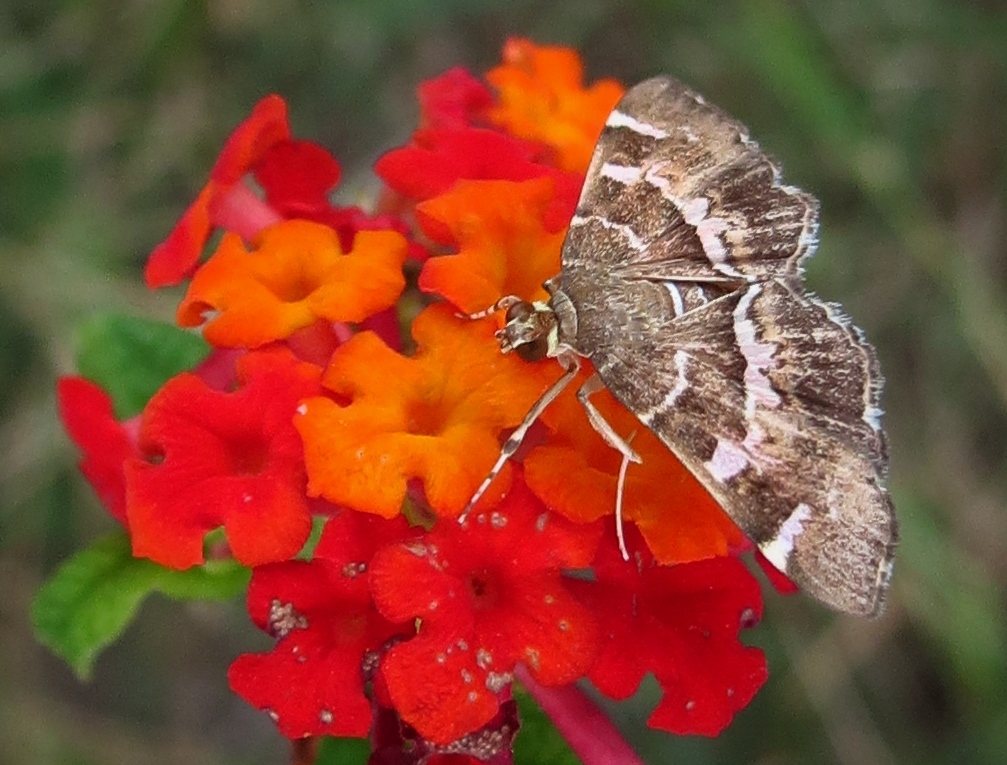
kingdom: Animalia
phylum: Arthropoda
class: Insecta
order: Lepidoptera
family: Crambidae
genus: Hymenia
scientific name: Hymenia perspectalis
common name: Spotted beet webworm
